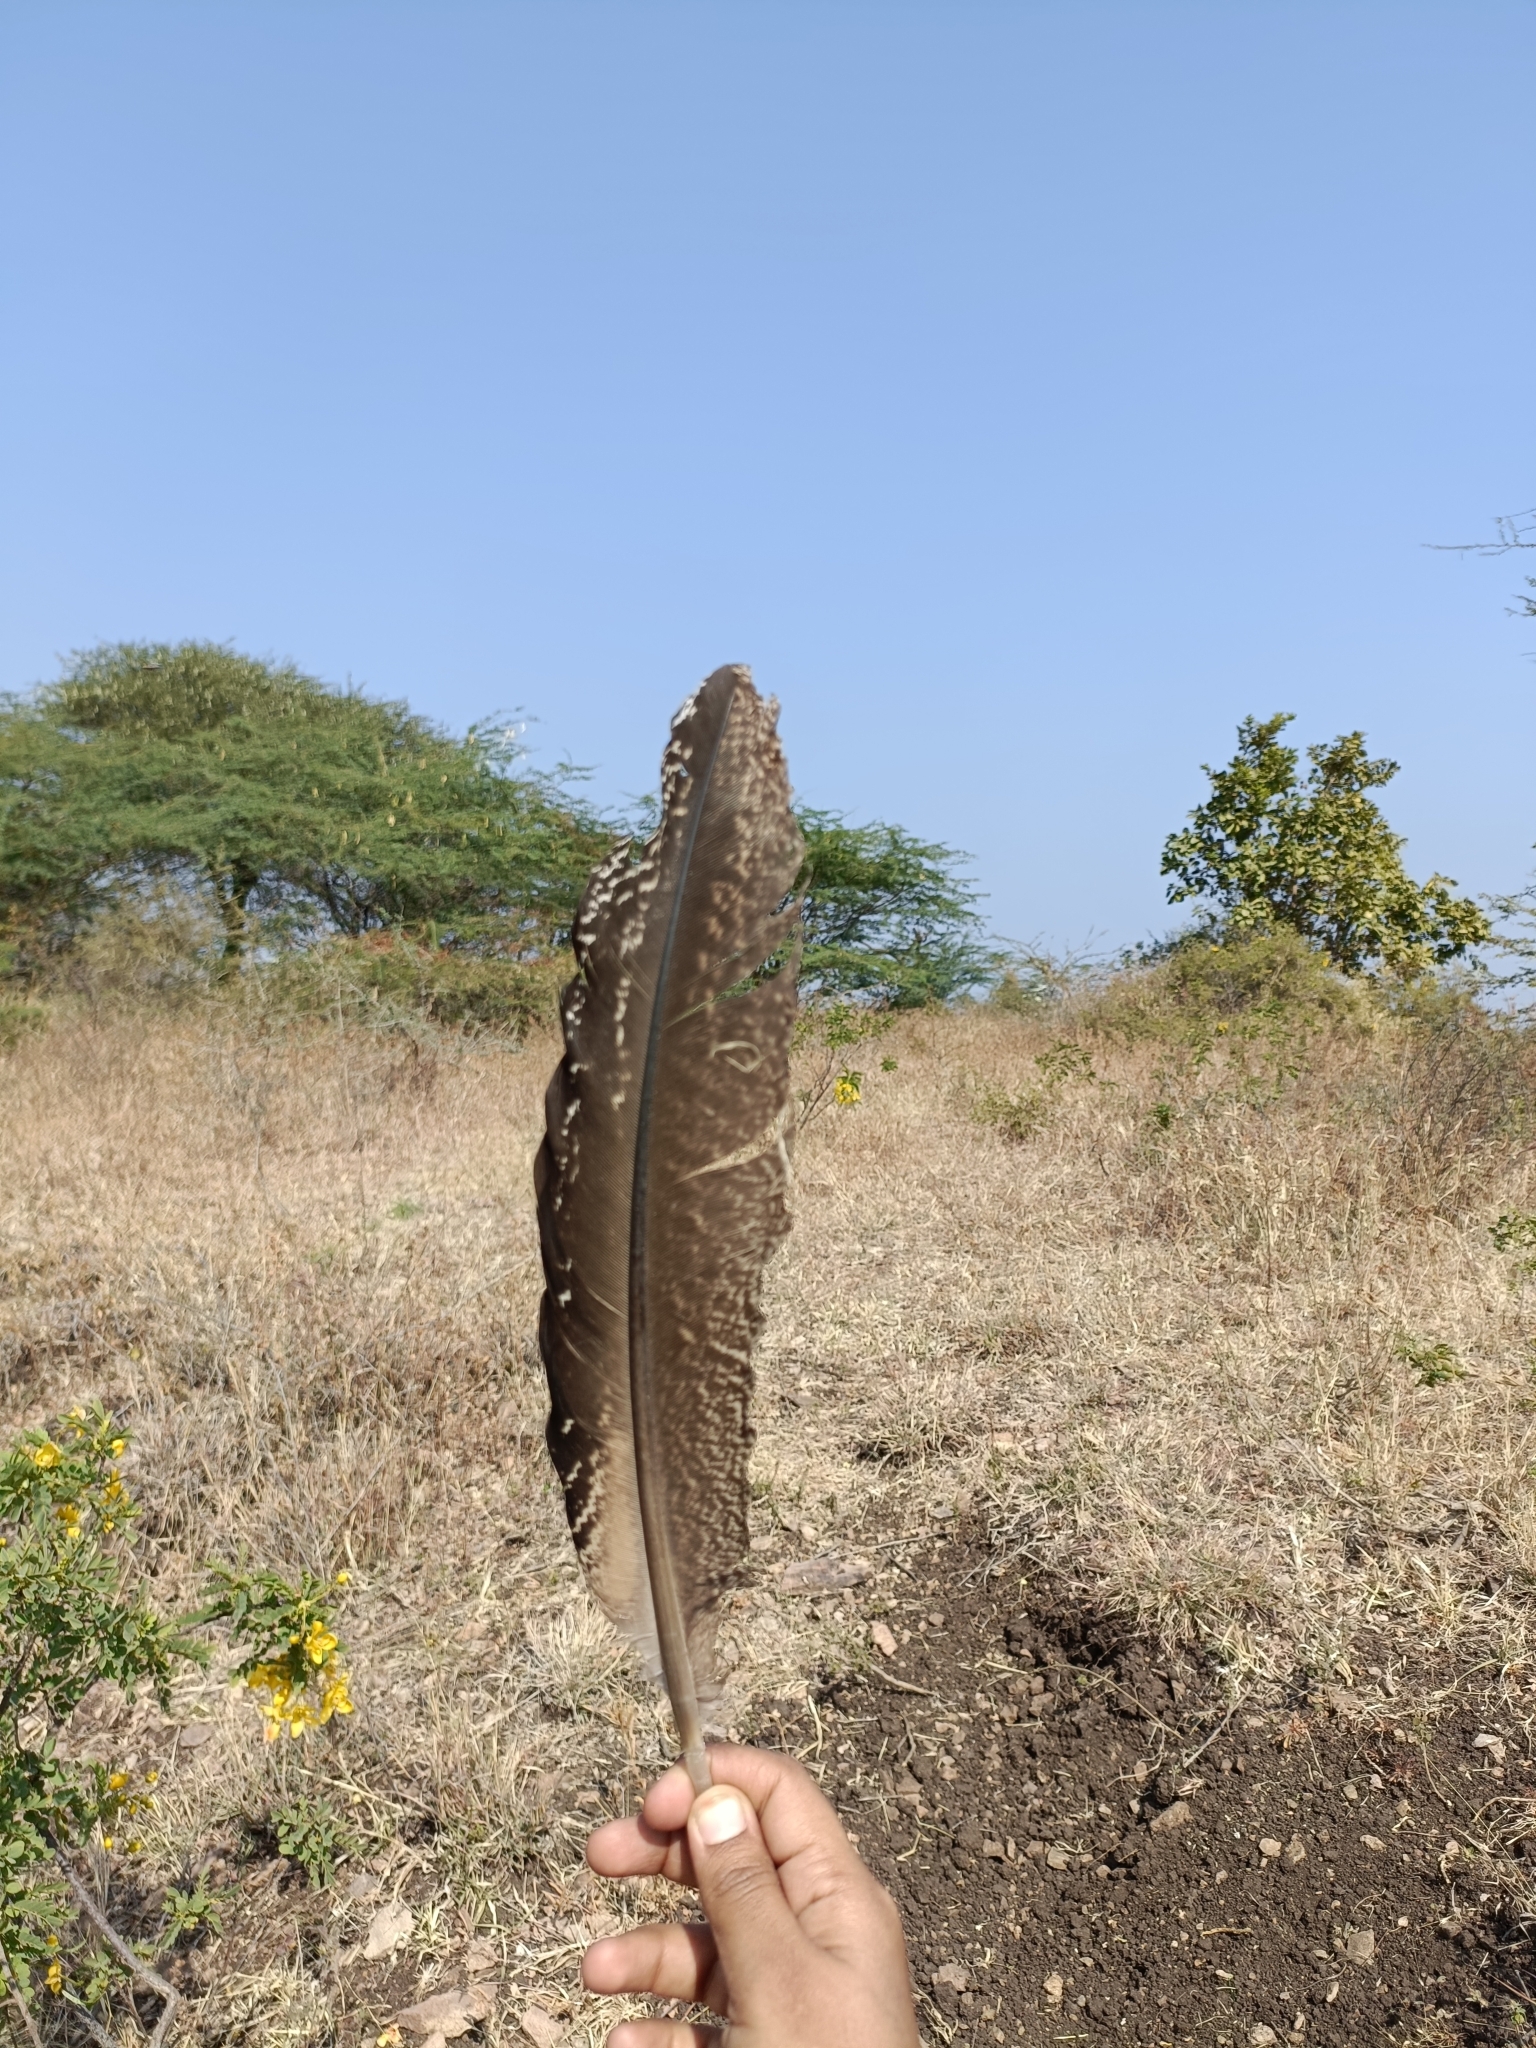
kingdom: Animalia
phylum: Chordata
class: Aves
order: Galliformes
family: Phasianidae
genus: Pavo
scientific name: Pavo cristatus
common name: Indian peafowl
